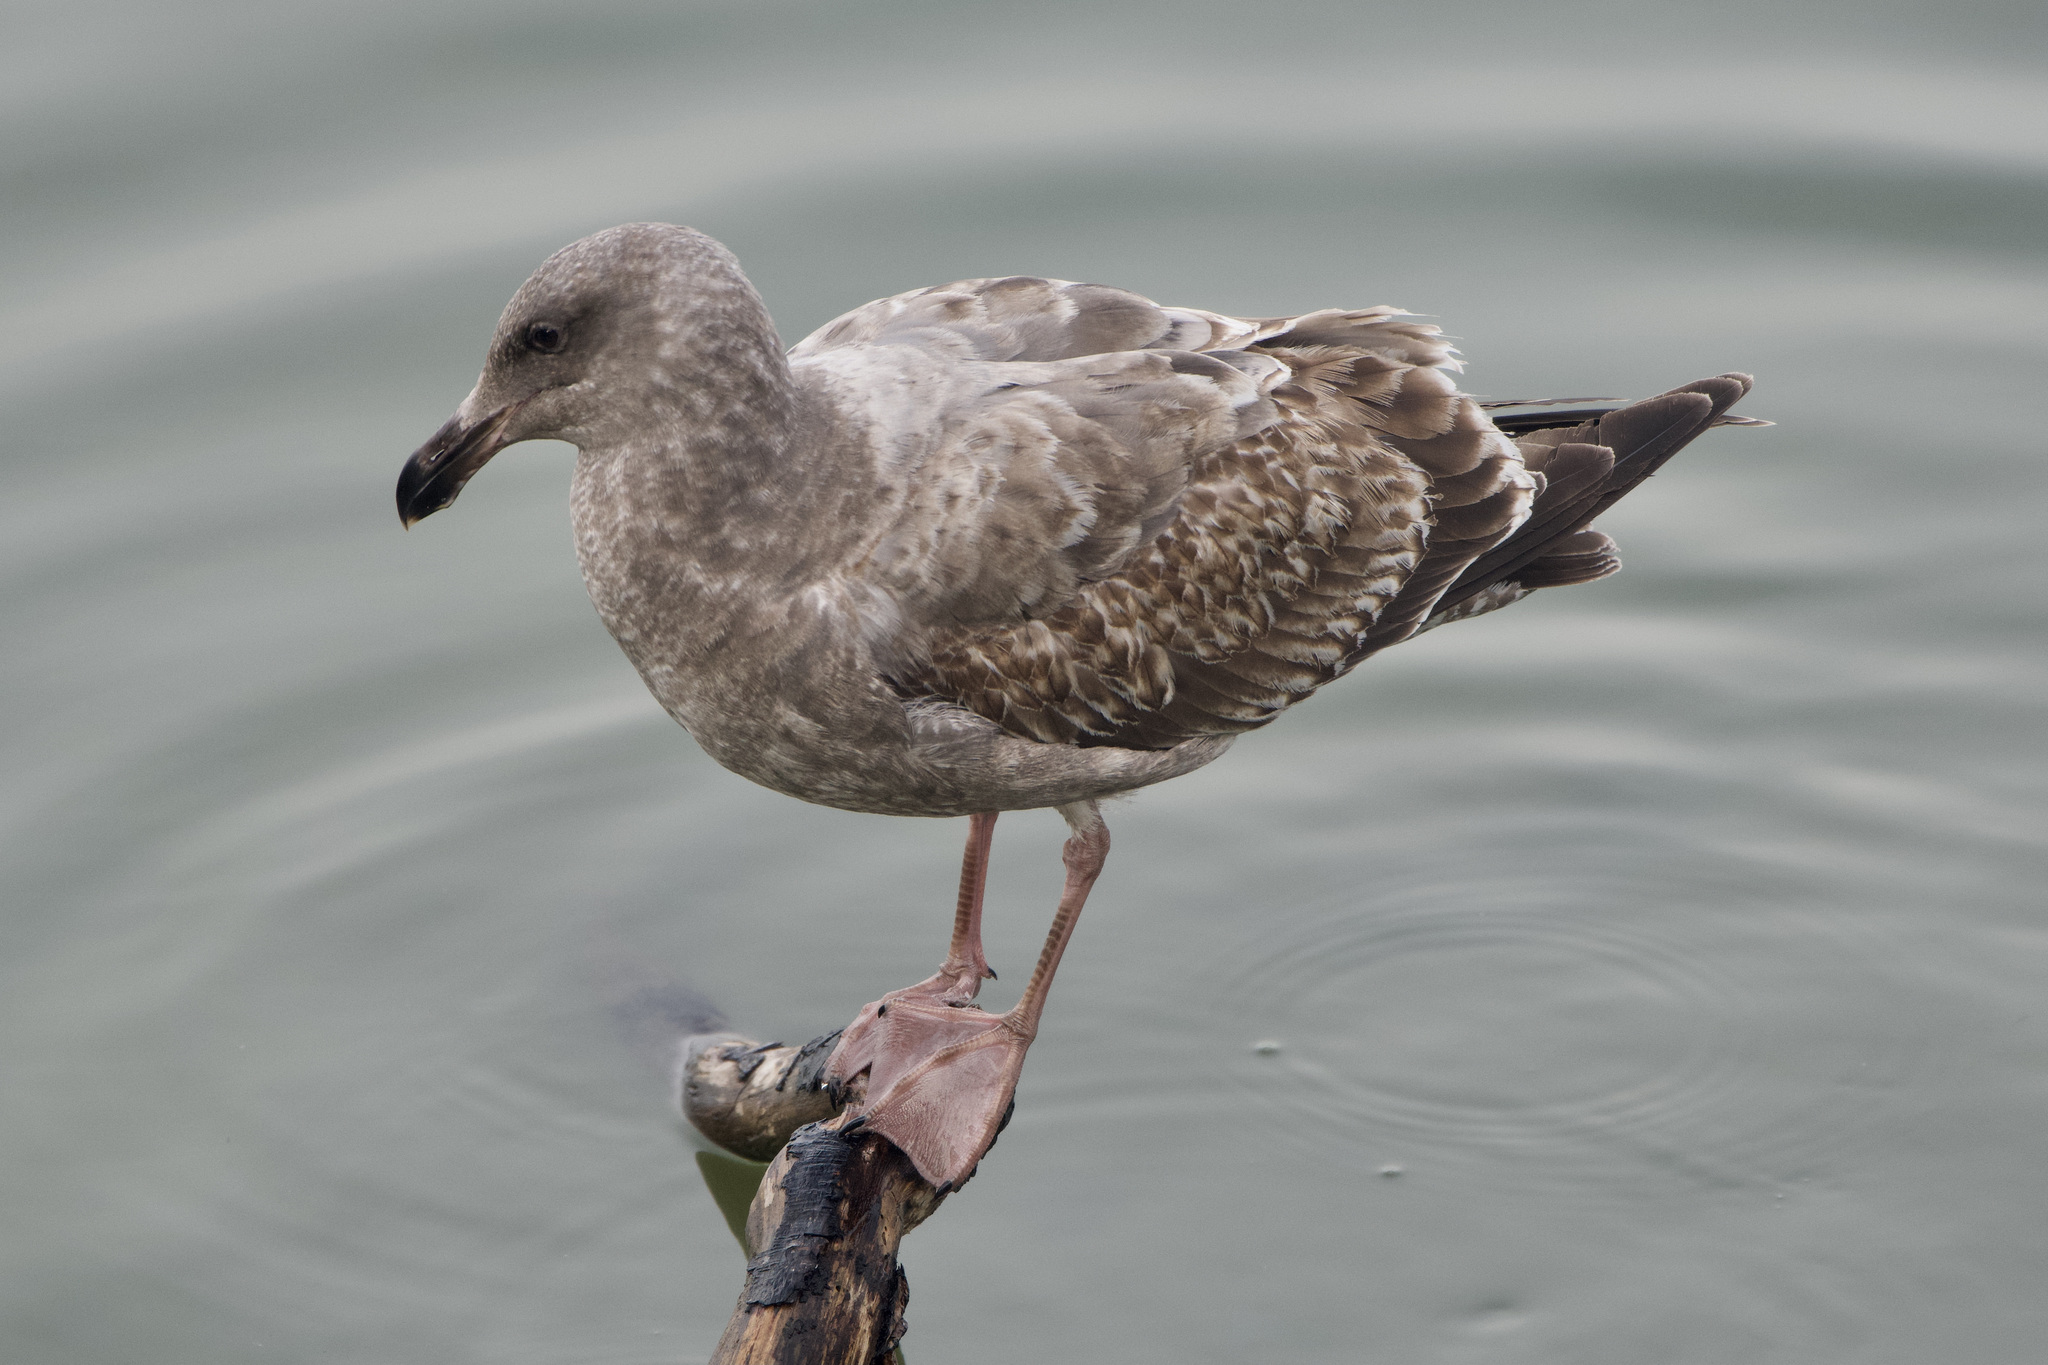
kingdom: Animalia
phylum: Chordata
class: Aves
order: Charadriiformes
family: Laridae
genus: Larus
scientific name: Larus occidentalis
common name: Western gull
